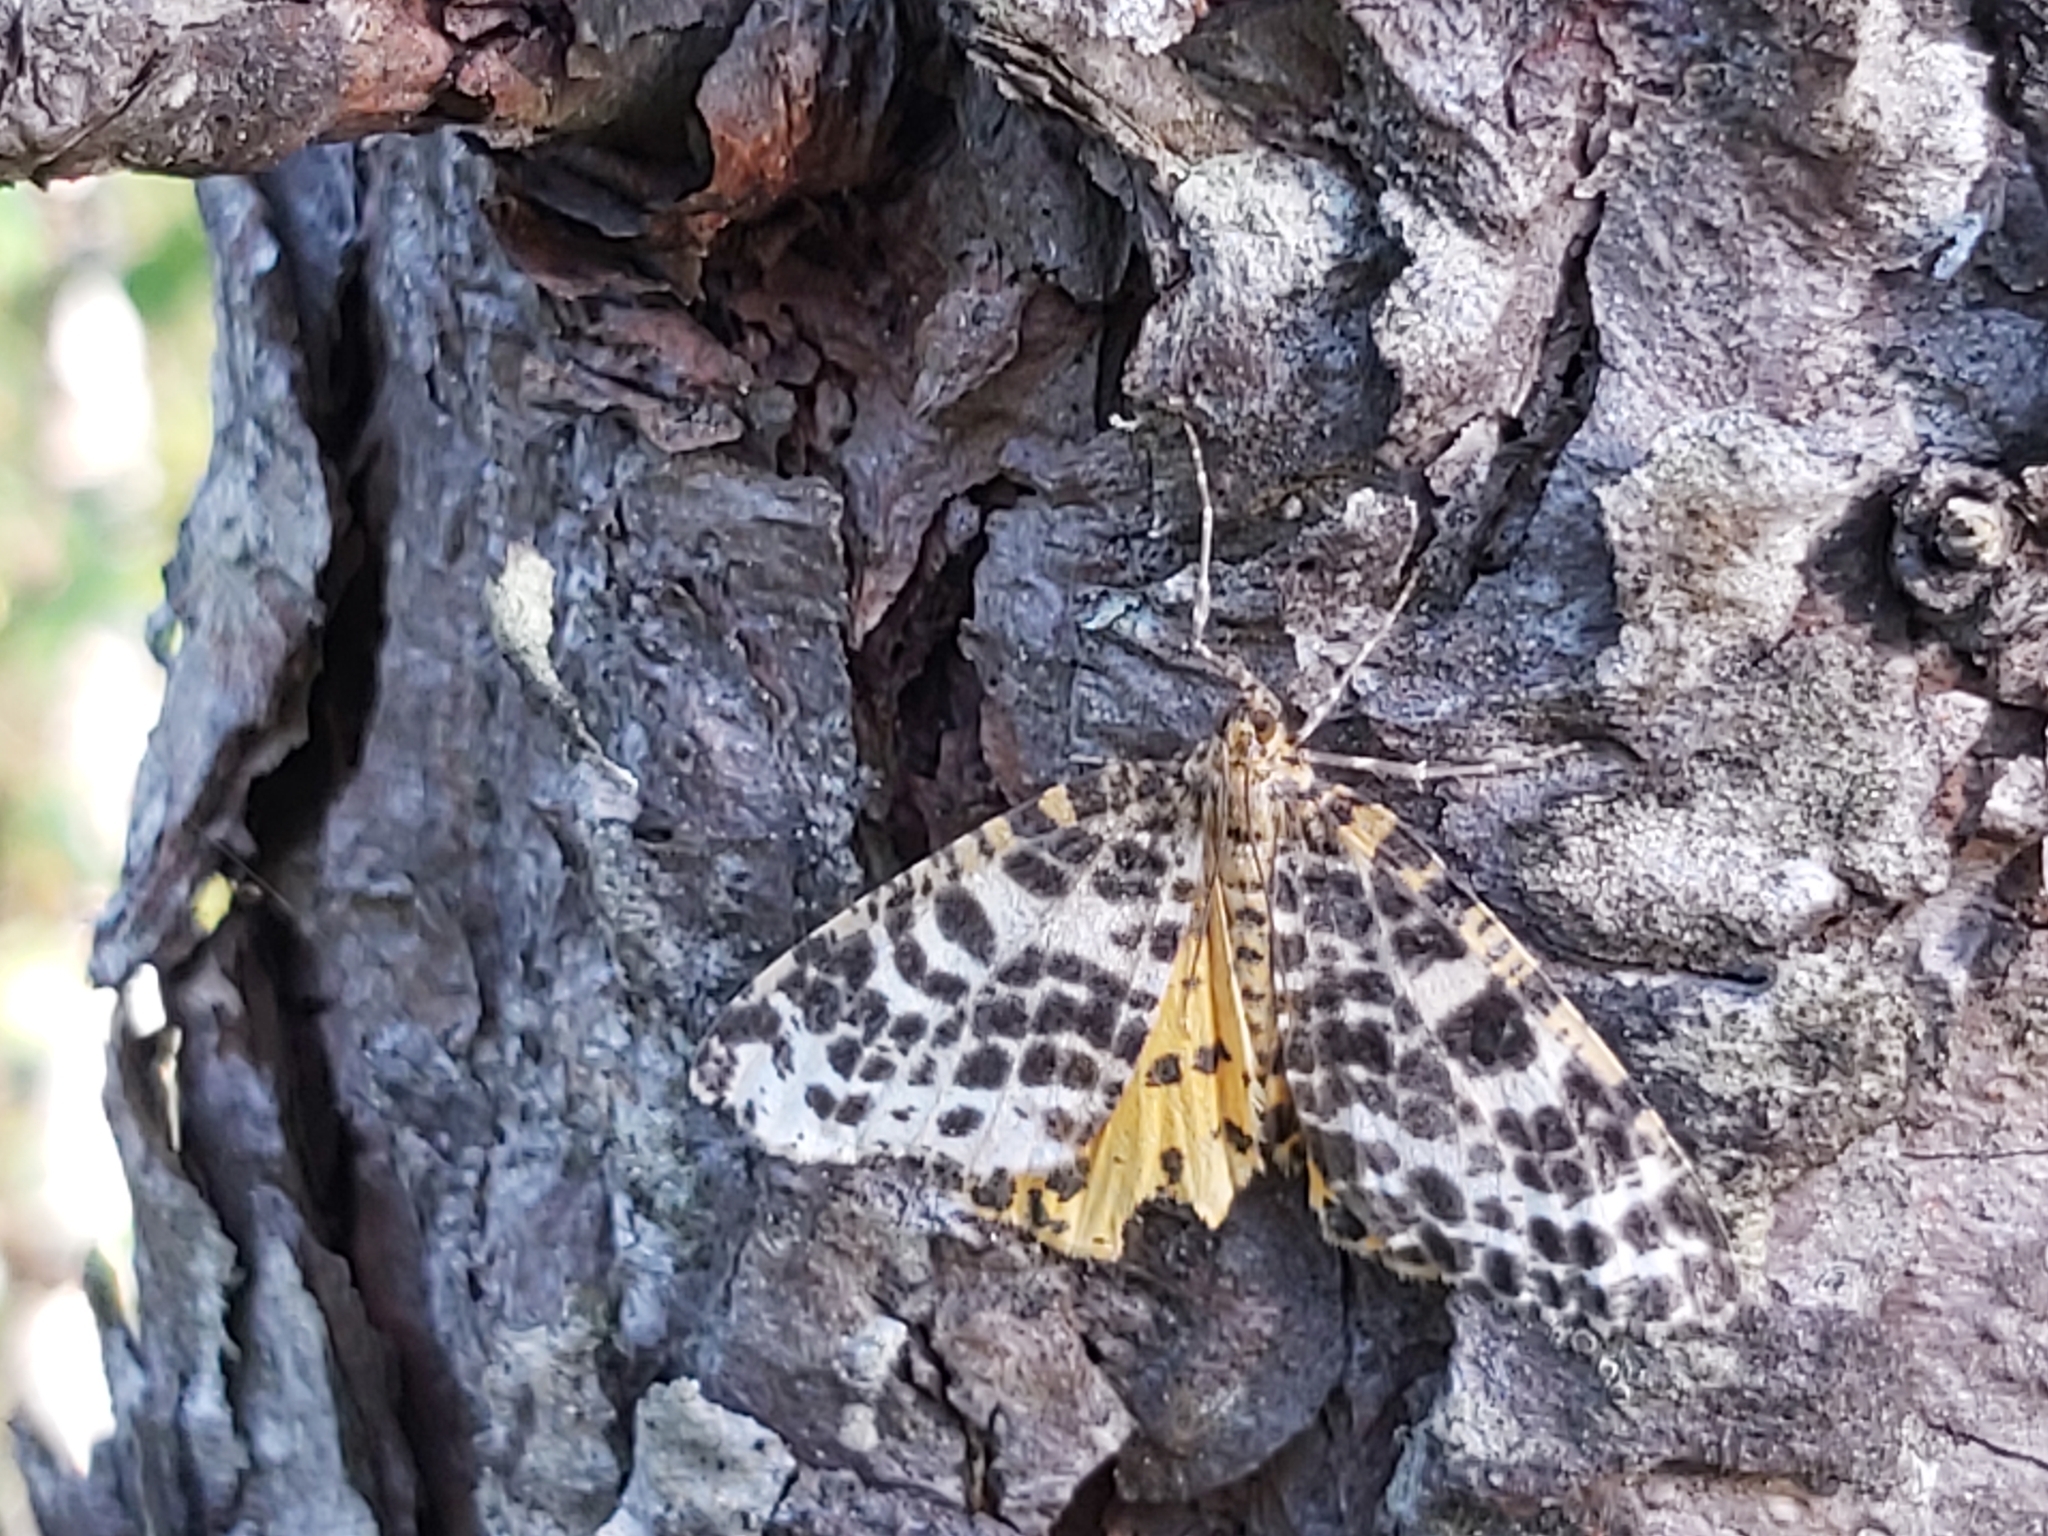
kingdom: Animalia
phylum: Arthropoda
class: Insecta
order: Lepidoptera
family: Geometridae
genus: Arichanna
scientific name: Arichanna melanaria
